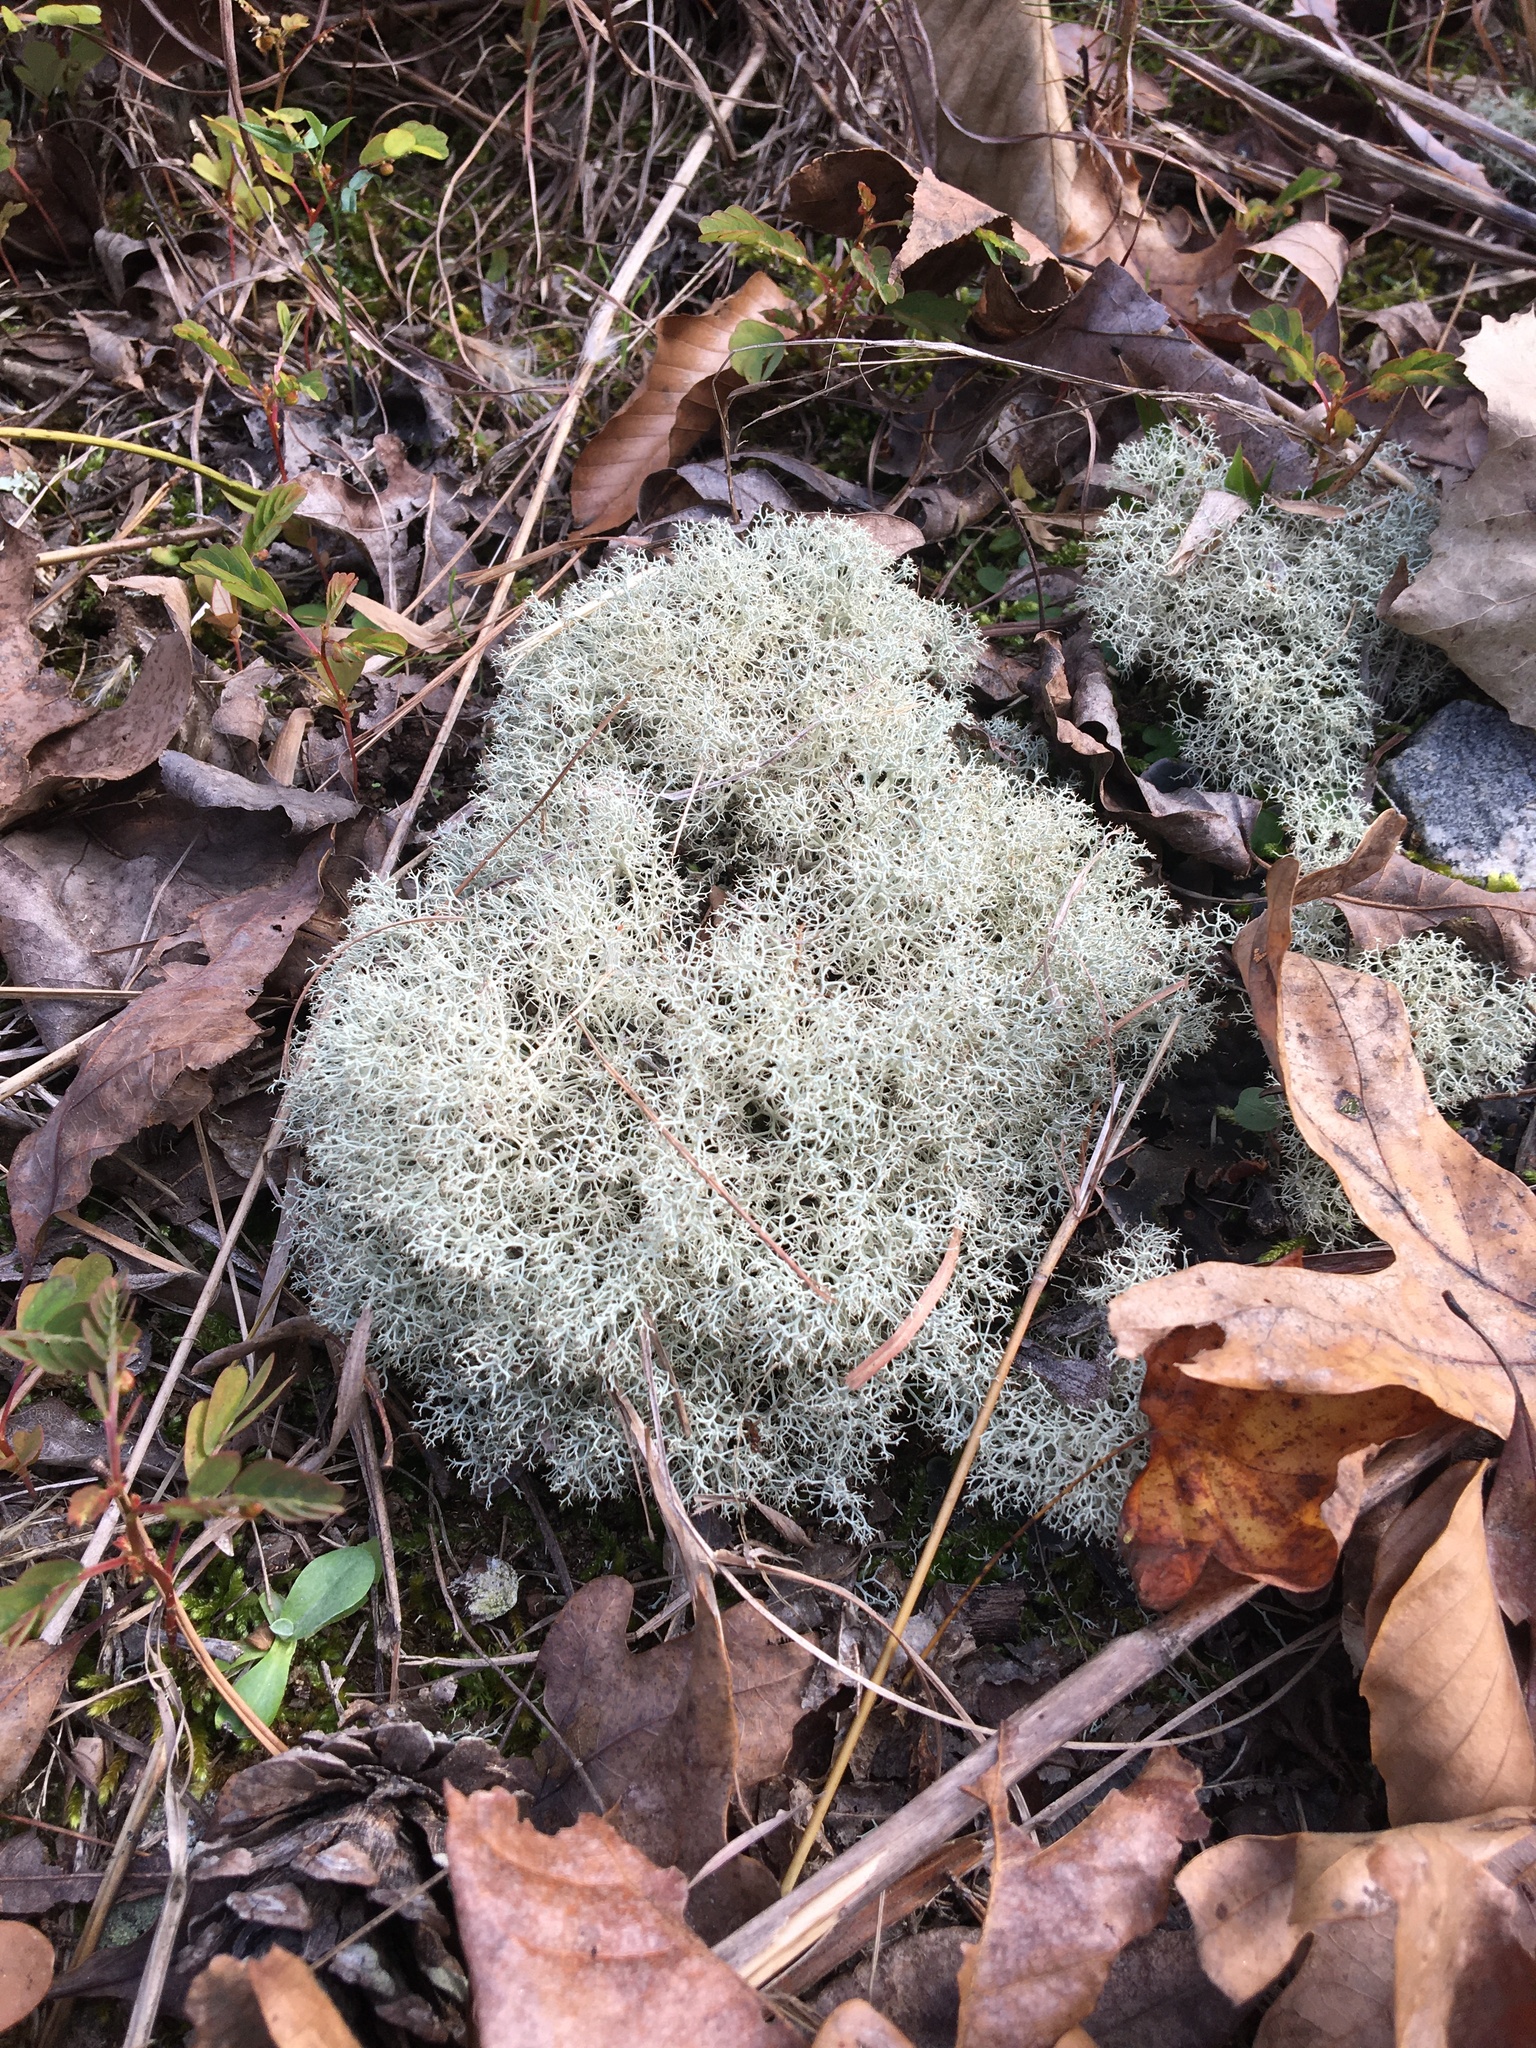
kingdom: Fungi
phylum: Ascomycota
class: Lecanoromycetes
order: Lecanorales
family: Cladoniaceae
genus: Cladonia
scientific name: Cladonia subtenuis
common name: Dixie reindeer lichen
